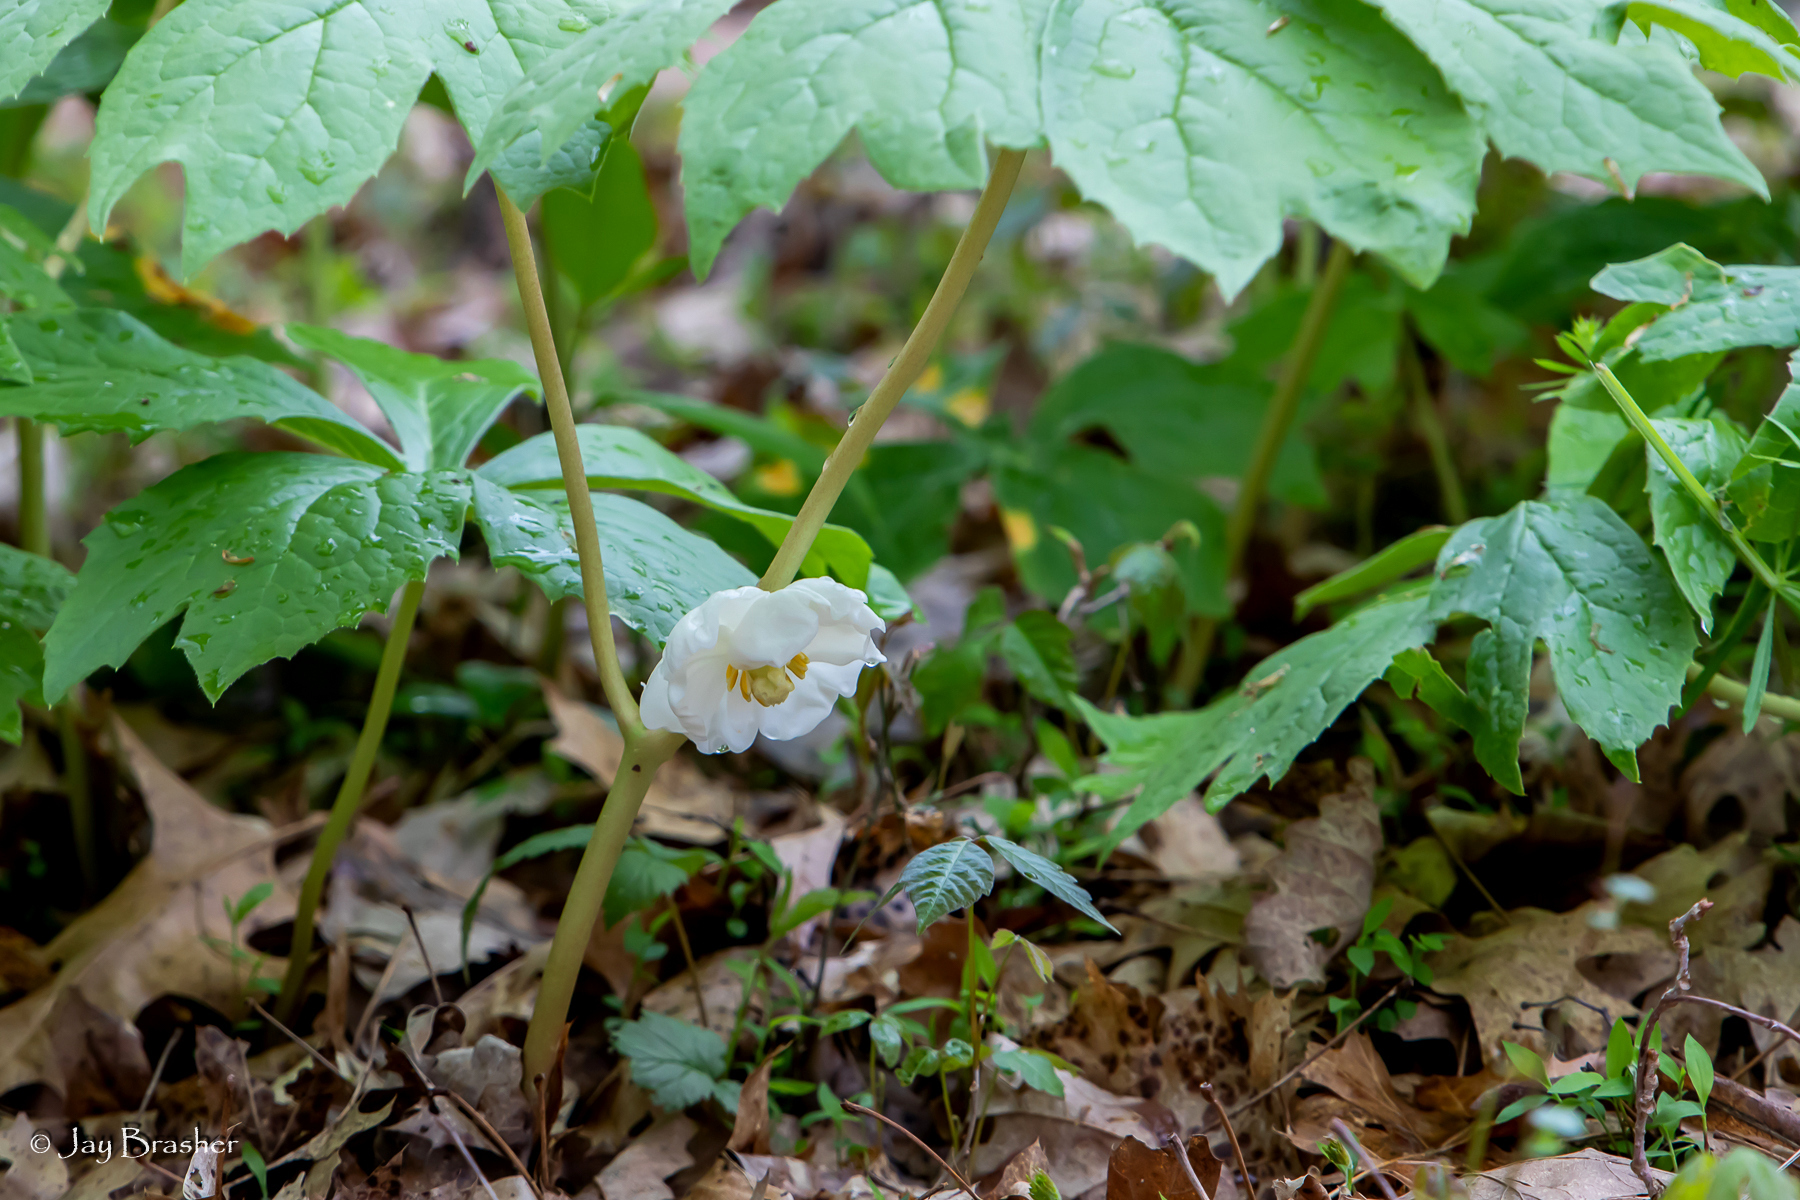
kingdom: Plantae
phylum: Tracheophyta
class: Magnoliopsida
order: Ranunculales
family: Berberidaceae
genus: Podophyllum
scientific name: Podophyllum peltatum
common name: Wild mandrake
